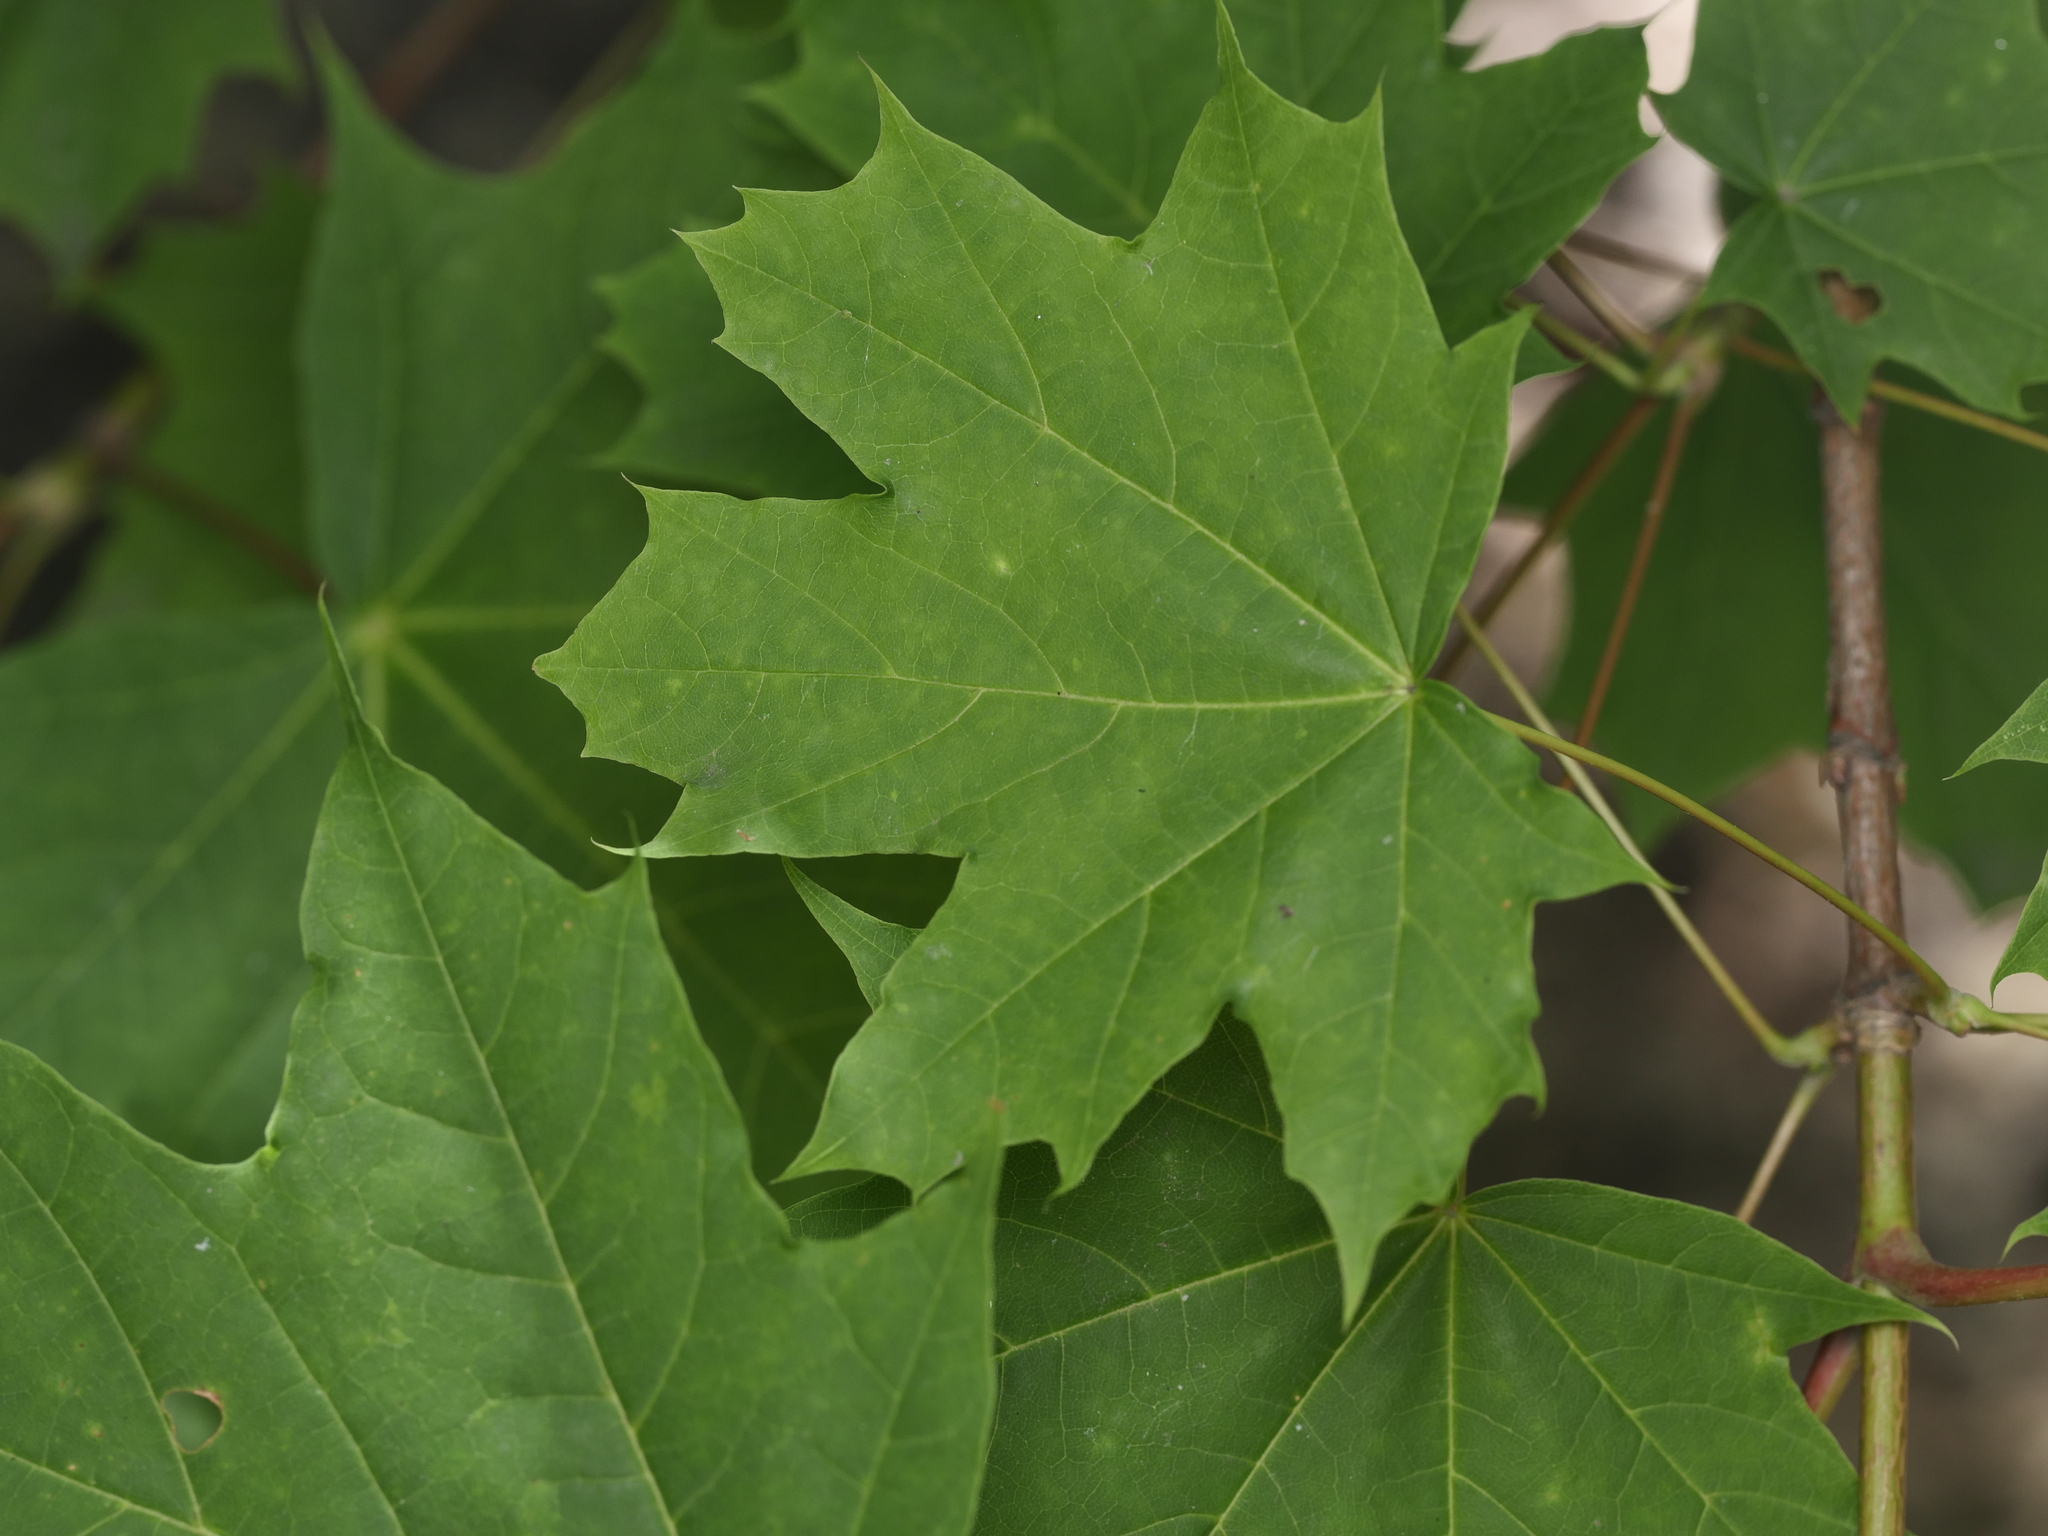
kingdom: Plantae
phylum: Tracheophyta
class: Magnoliopsida
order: Sapindales
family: Sapindaceae
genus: Acer
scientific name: Acer platanoides
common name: Norway maple
